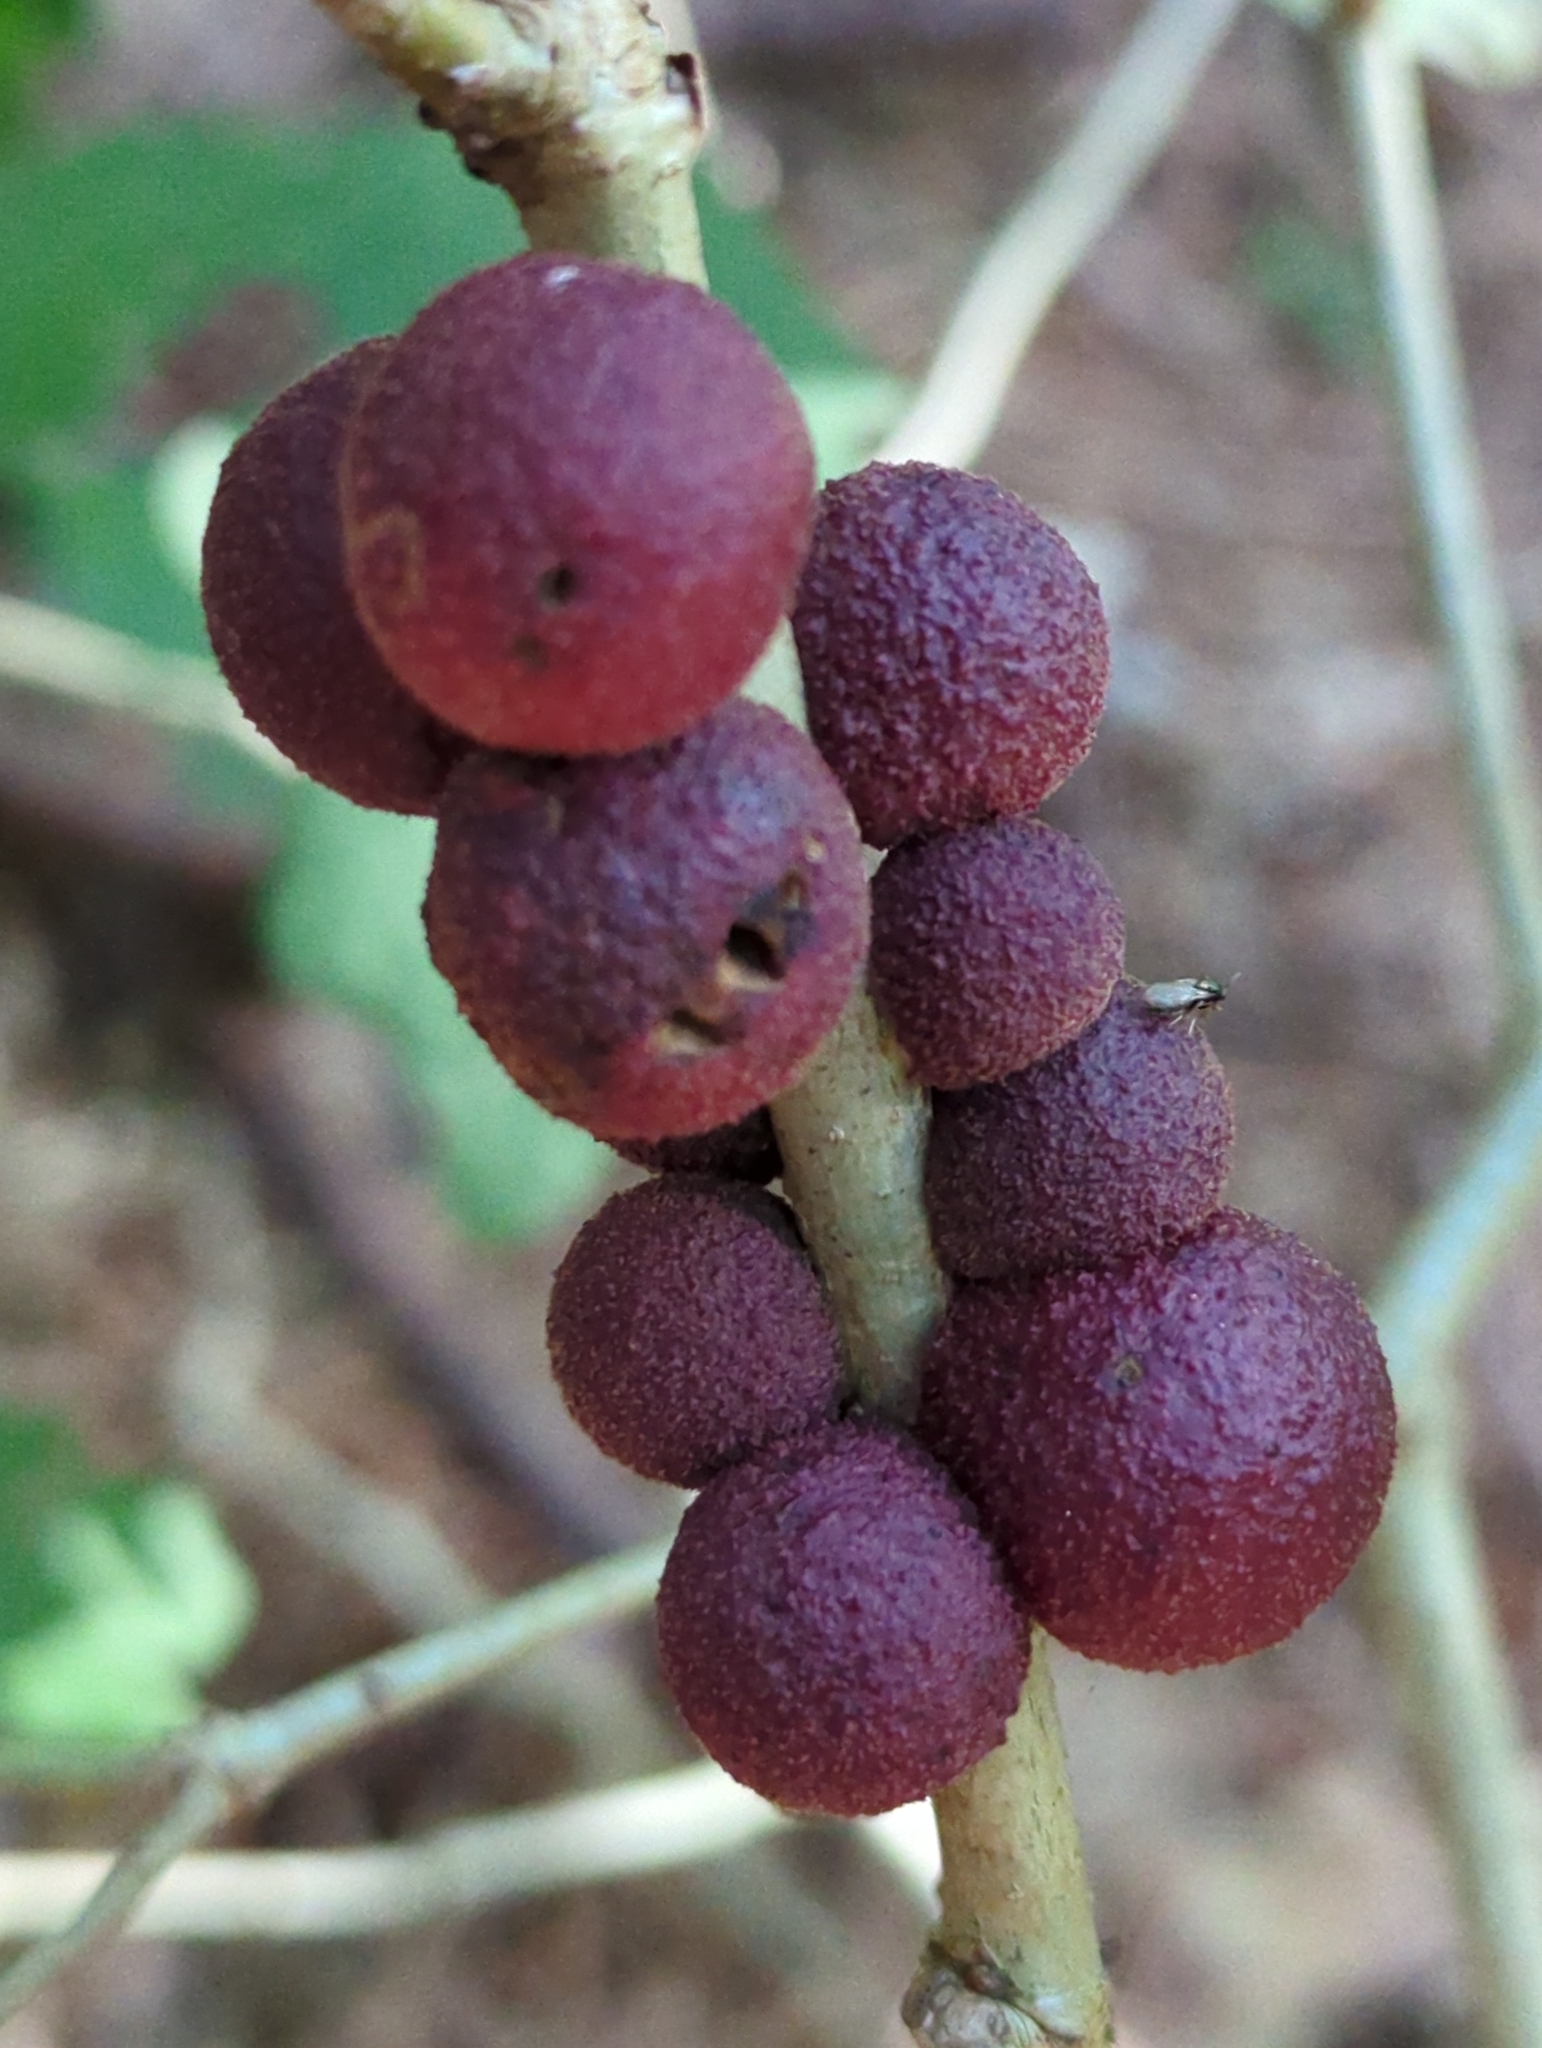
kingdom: Animalia
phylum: Arthropoda
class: Insecta
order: Hymenoptera
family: Cynipidae
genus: Disholcaspis
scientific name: Disholcaspis
